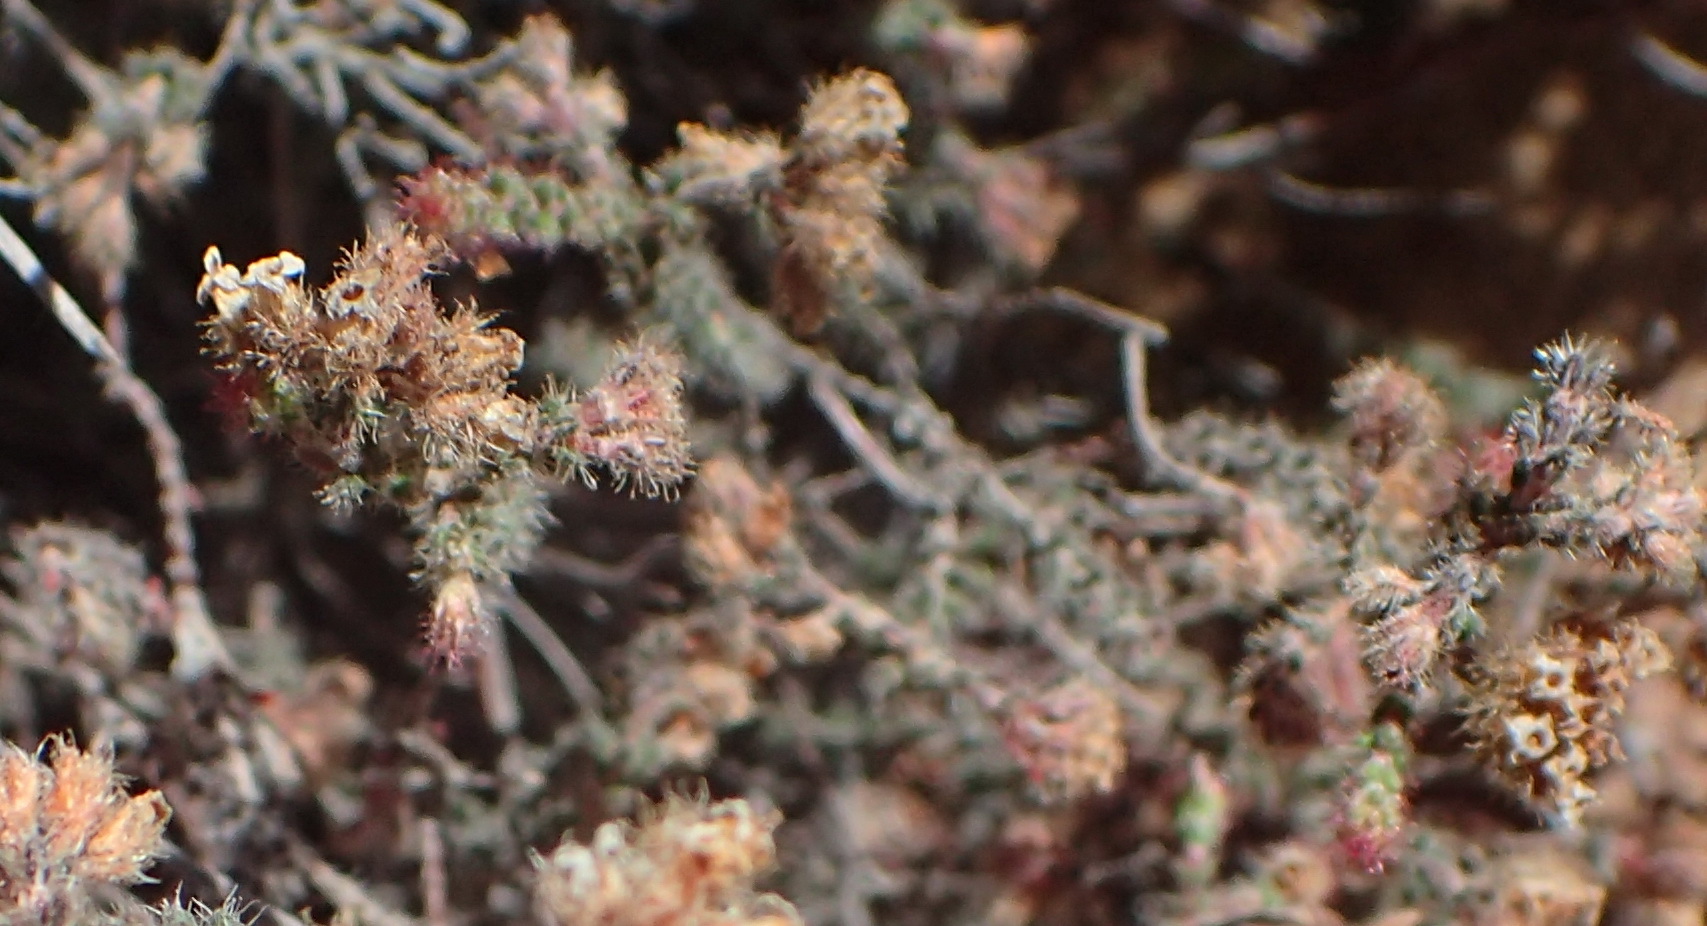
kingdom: Plantae
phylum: Tracheophyta
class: Magnoliopsida
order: Ericales
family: Ericaceae
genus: Erica
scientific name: Erica ingeana
